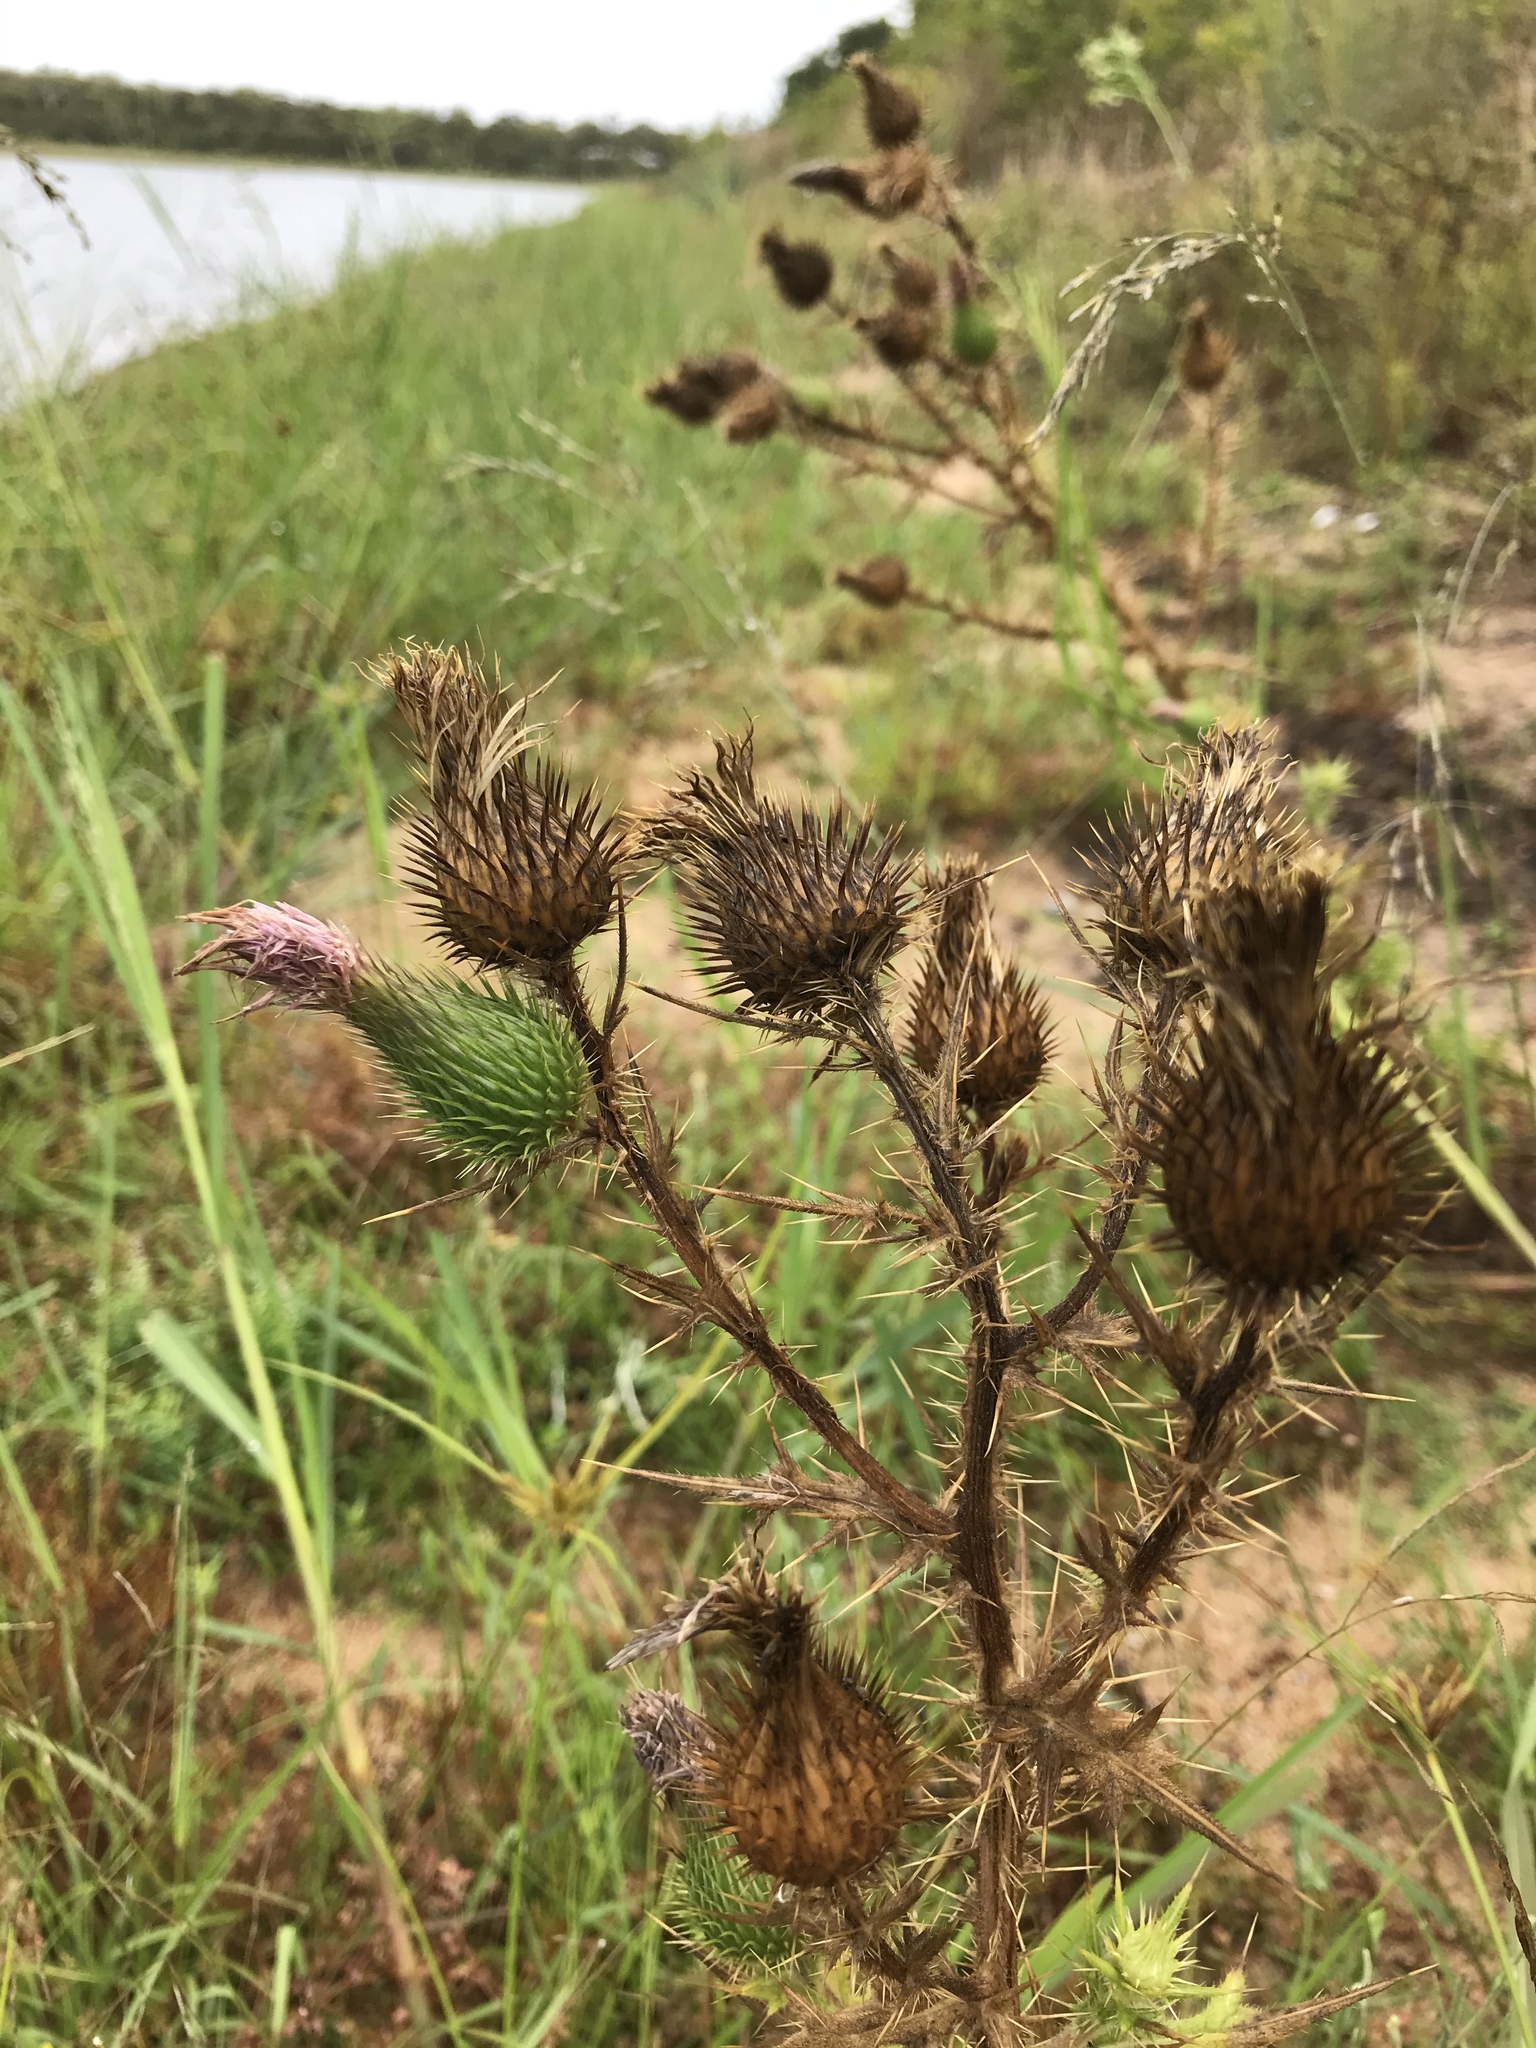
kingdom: Plantae
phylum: Tracheophyta
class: Magnoliopsida
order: Asterales
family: Asteraceae
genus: Cirsium
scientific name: Cirsium vulgare
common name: Bull thistle
